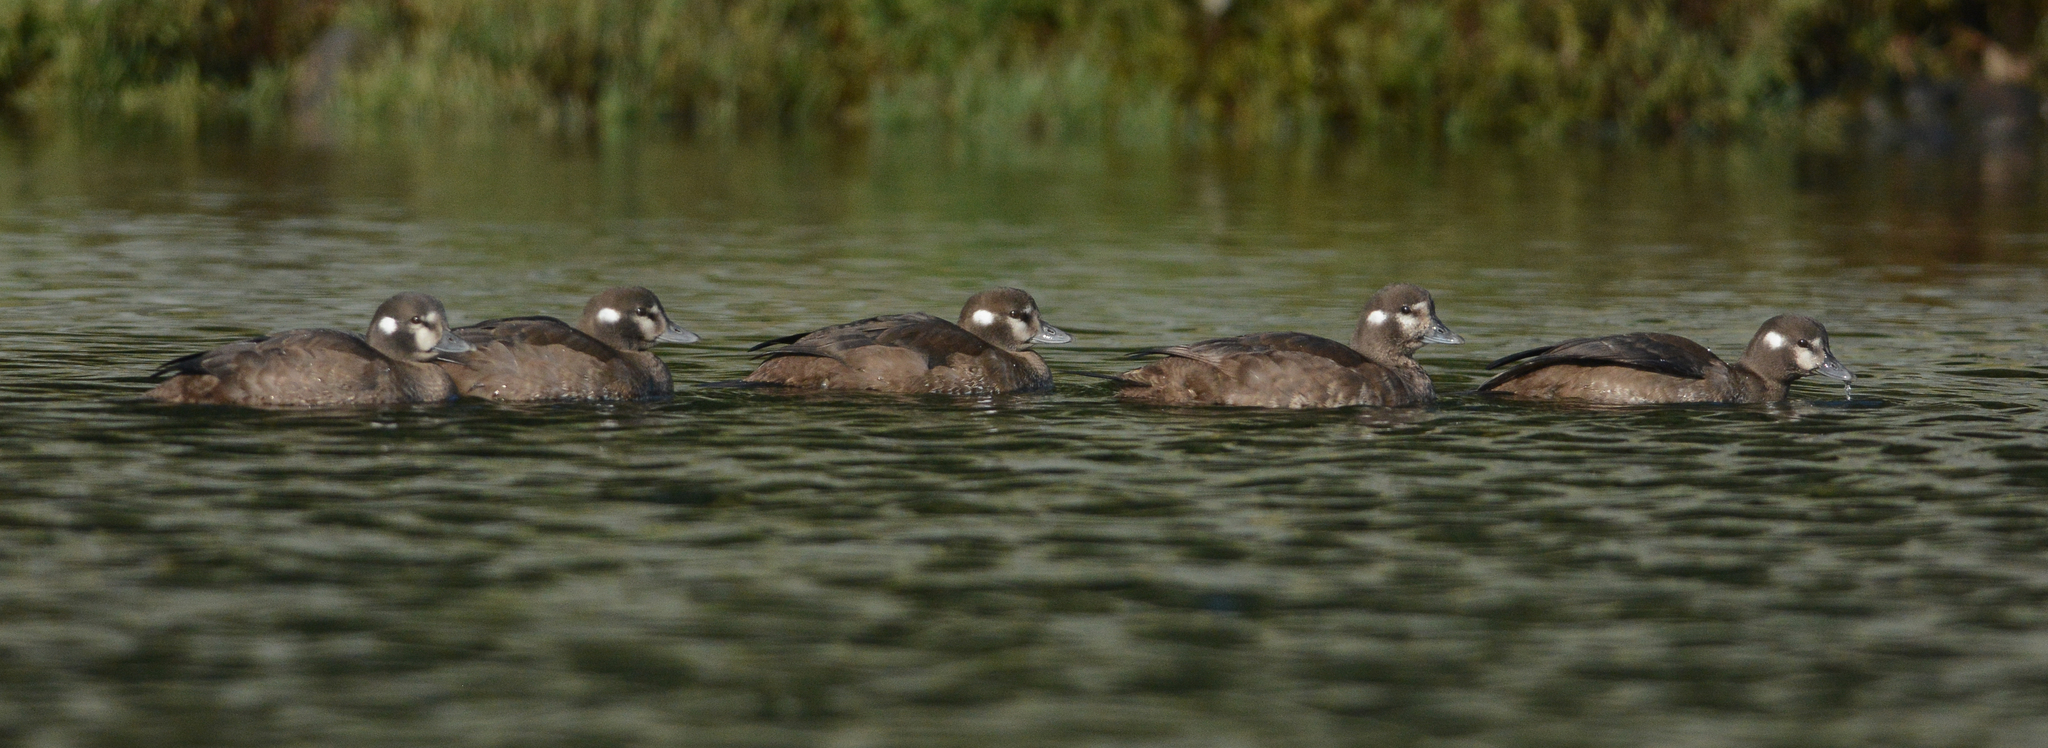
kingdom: Animalia
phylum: Chordata
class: Aves
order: Anseriformes
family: Anatidae
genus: Histrionicus
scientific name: Histrionicus histrionicus
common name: Harlequin duck
